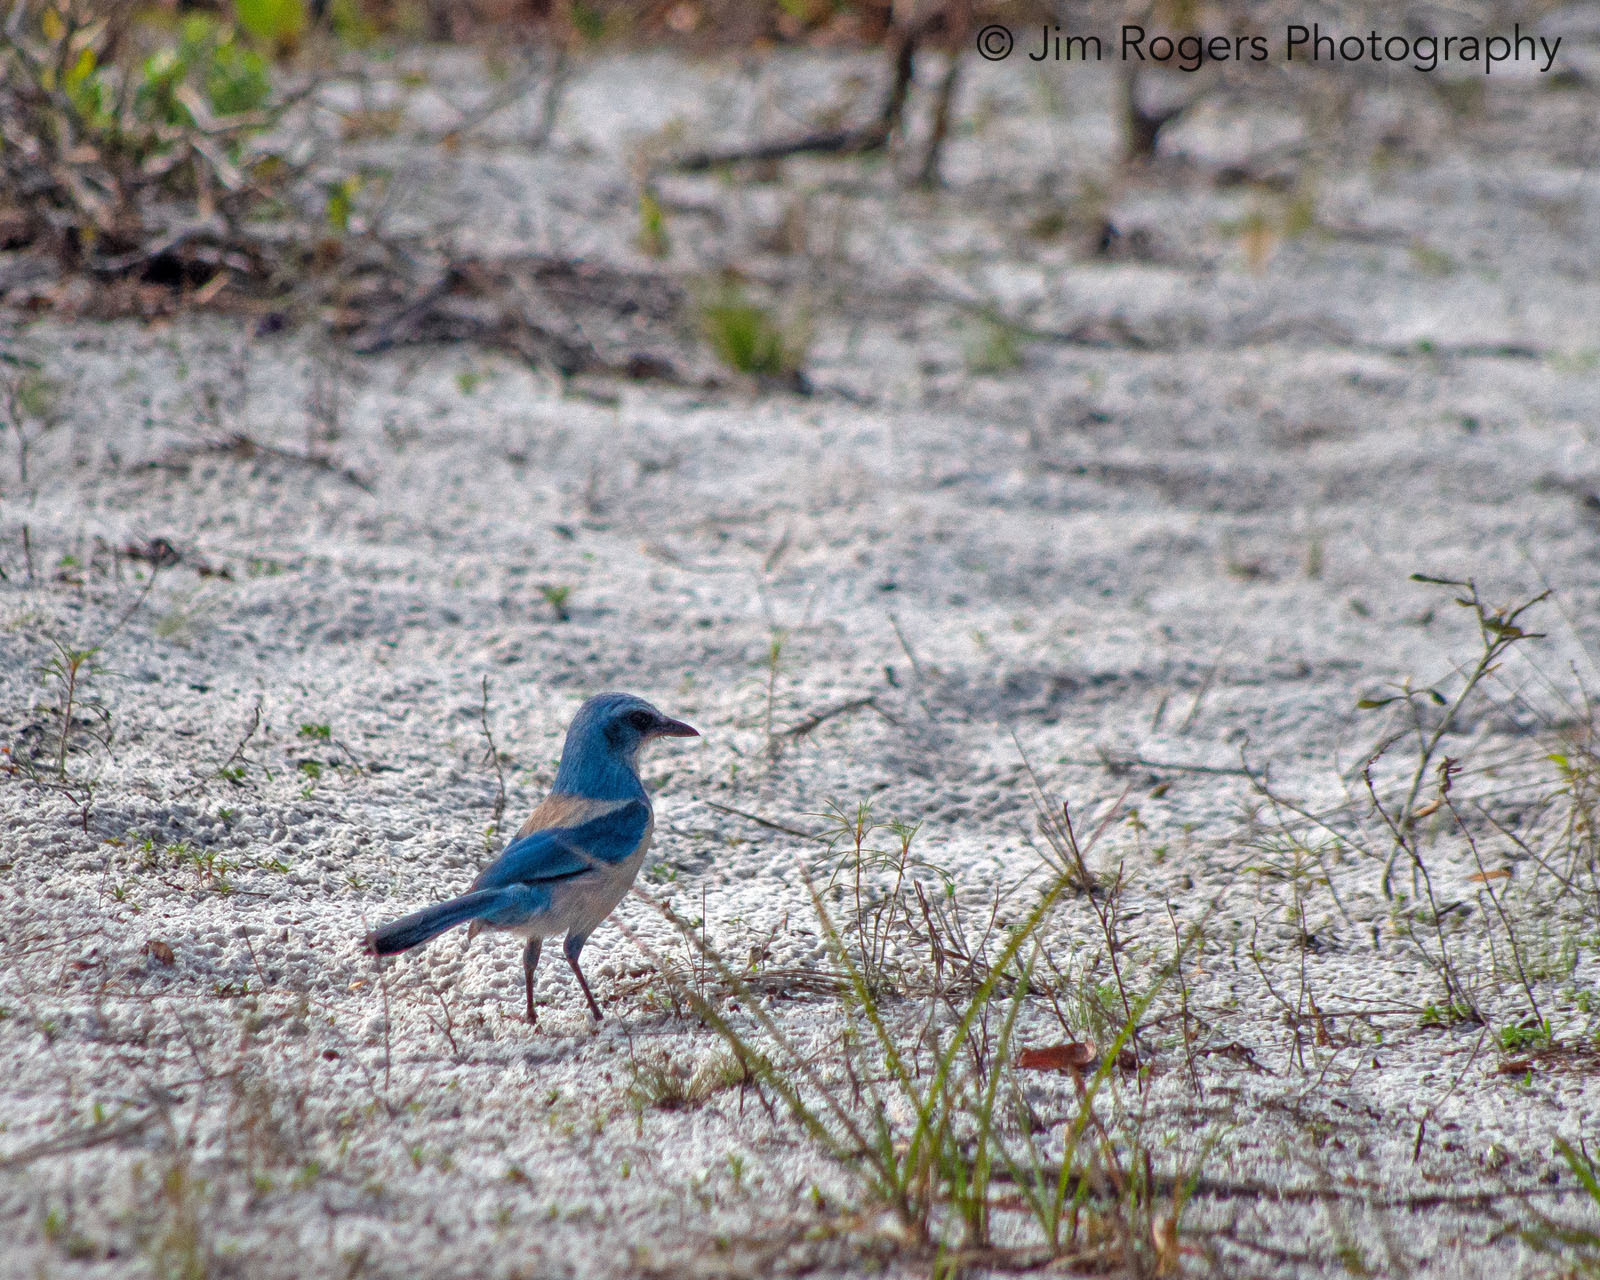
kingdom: Animalia
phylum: Chordata
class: Aves
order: Passeriformes
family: Corvidae
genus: Aphelocoma
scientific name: Aphelocoma coerulescens
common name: Florida scrub jay
